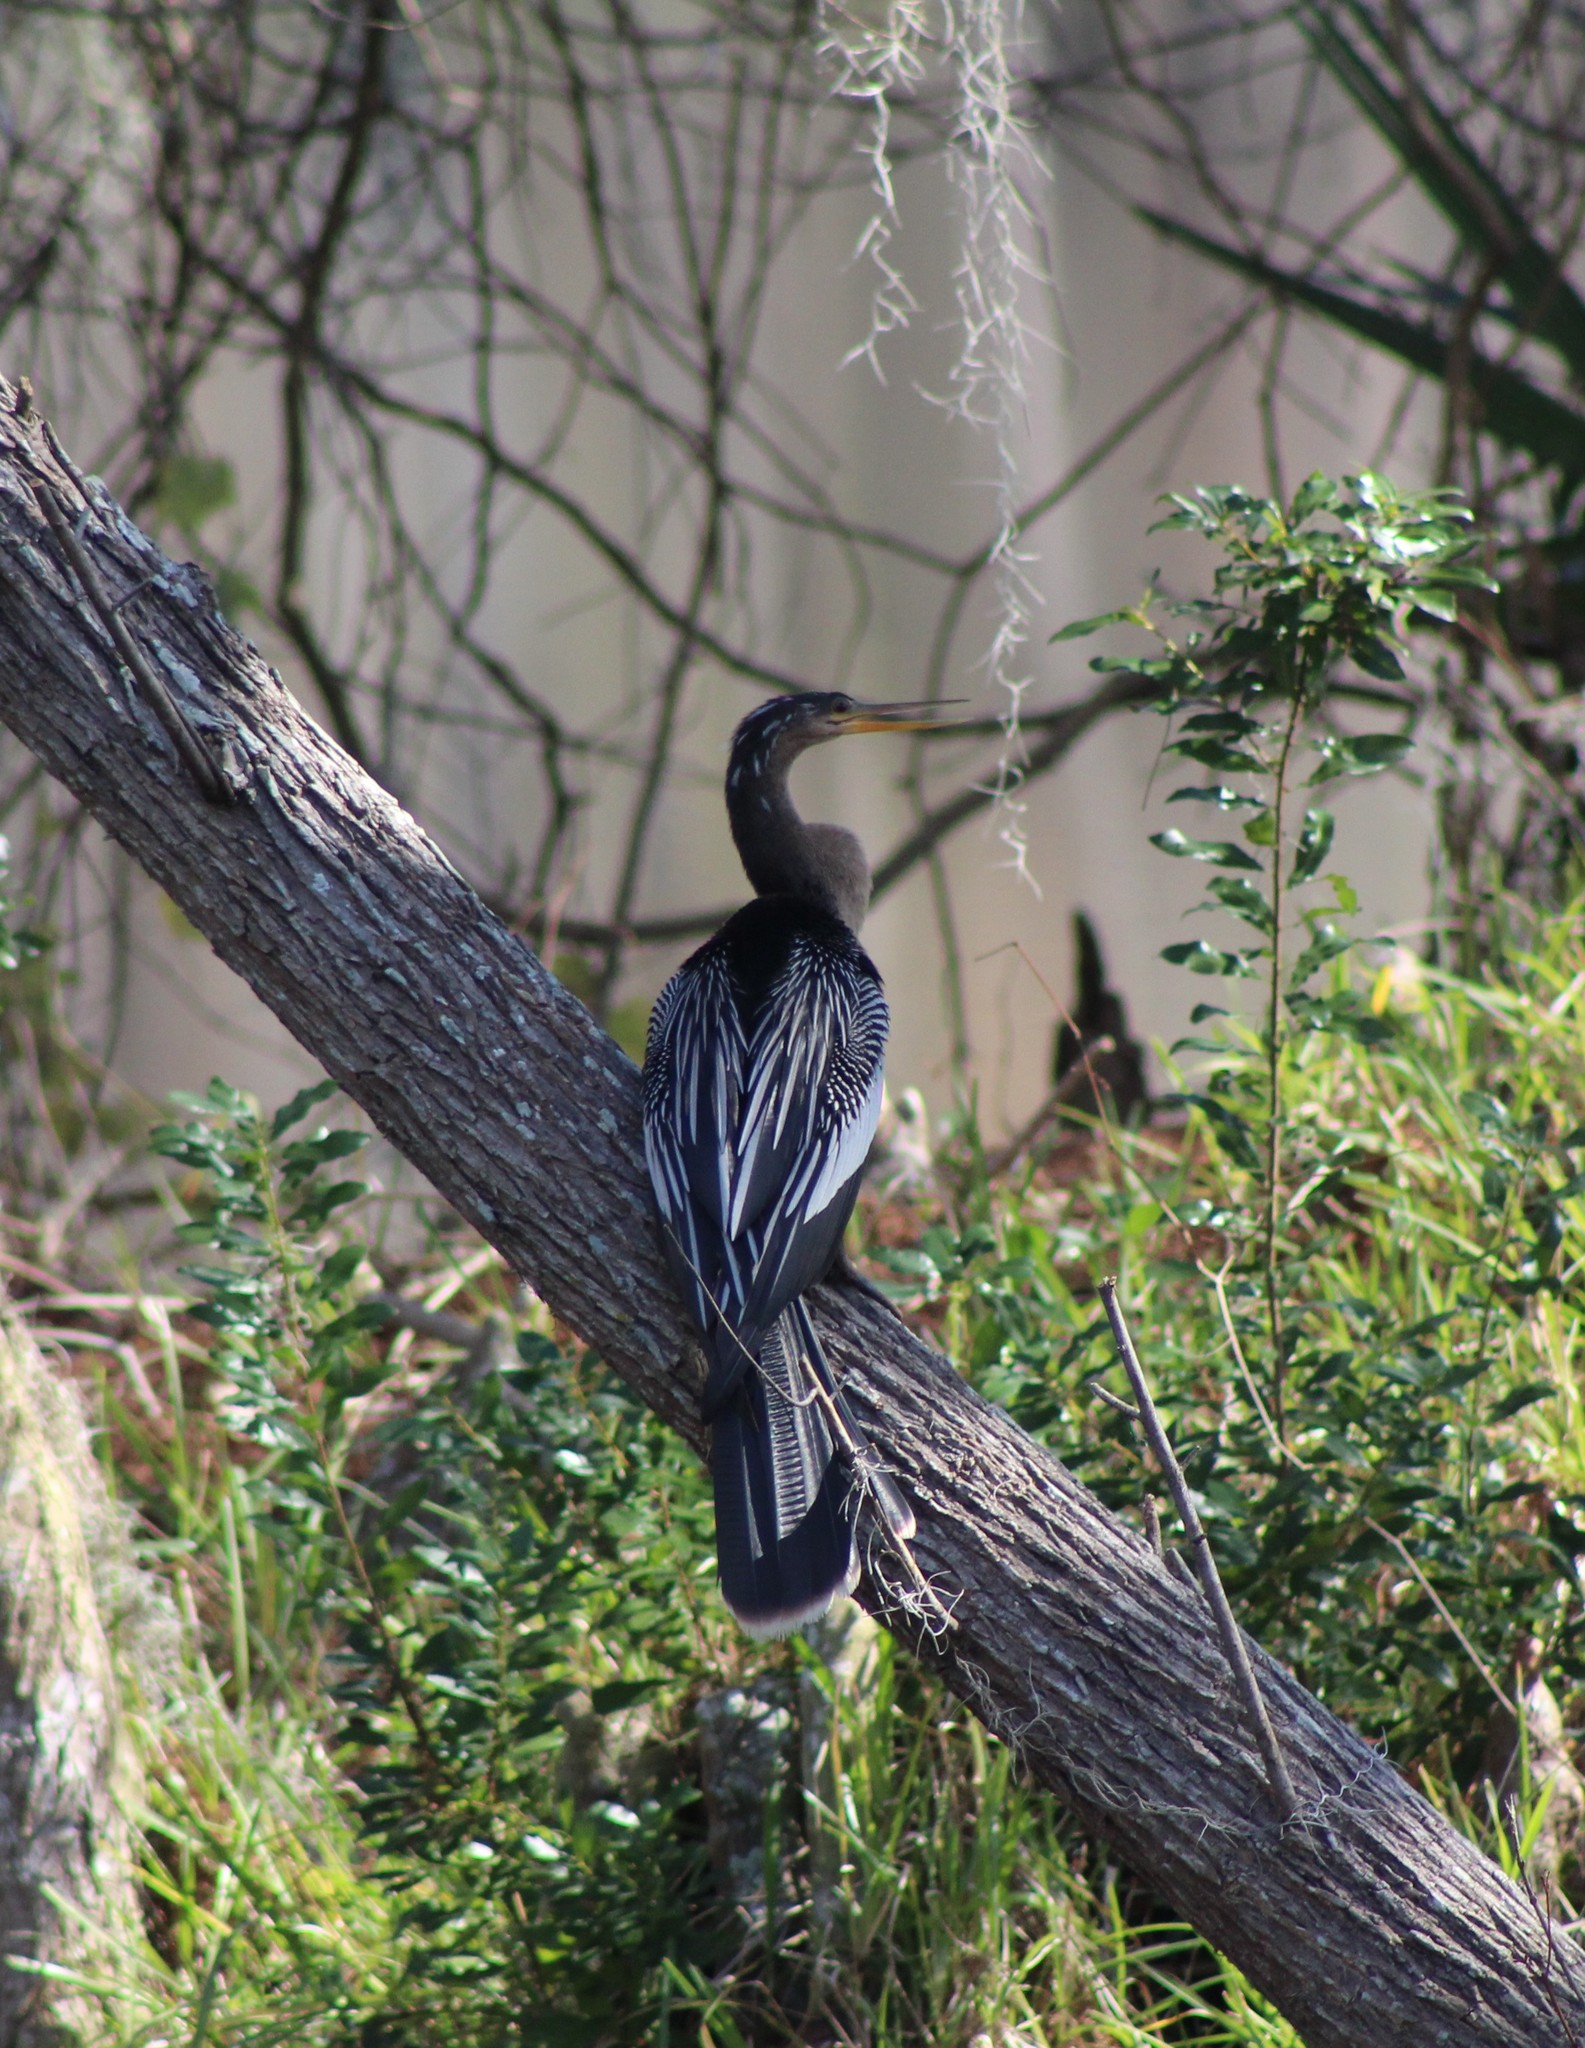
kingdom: Animalia
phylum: Chordata
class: Aves
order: Suliformes
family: Anhingidae
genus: Anhinga
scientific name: Anhinga anhinga
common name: Anhinga
